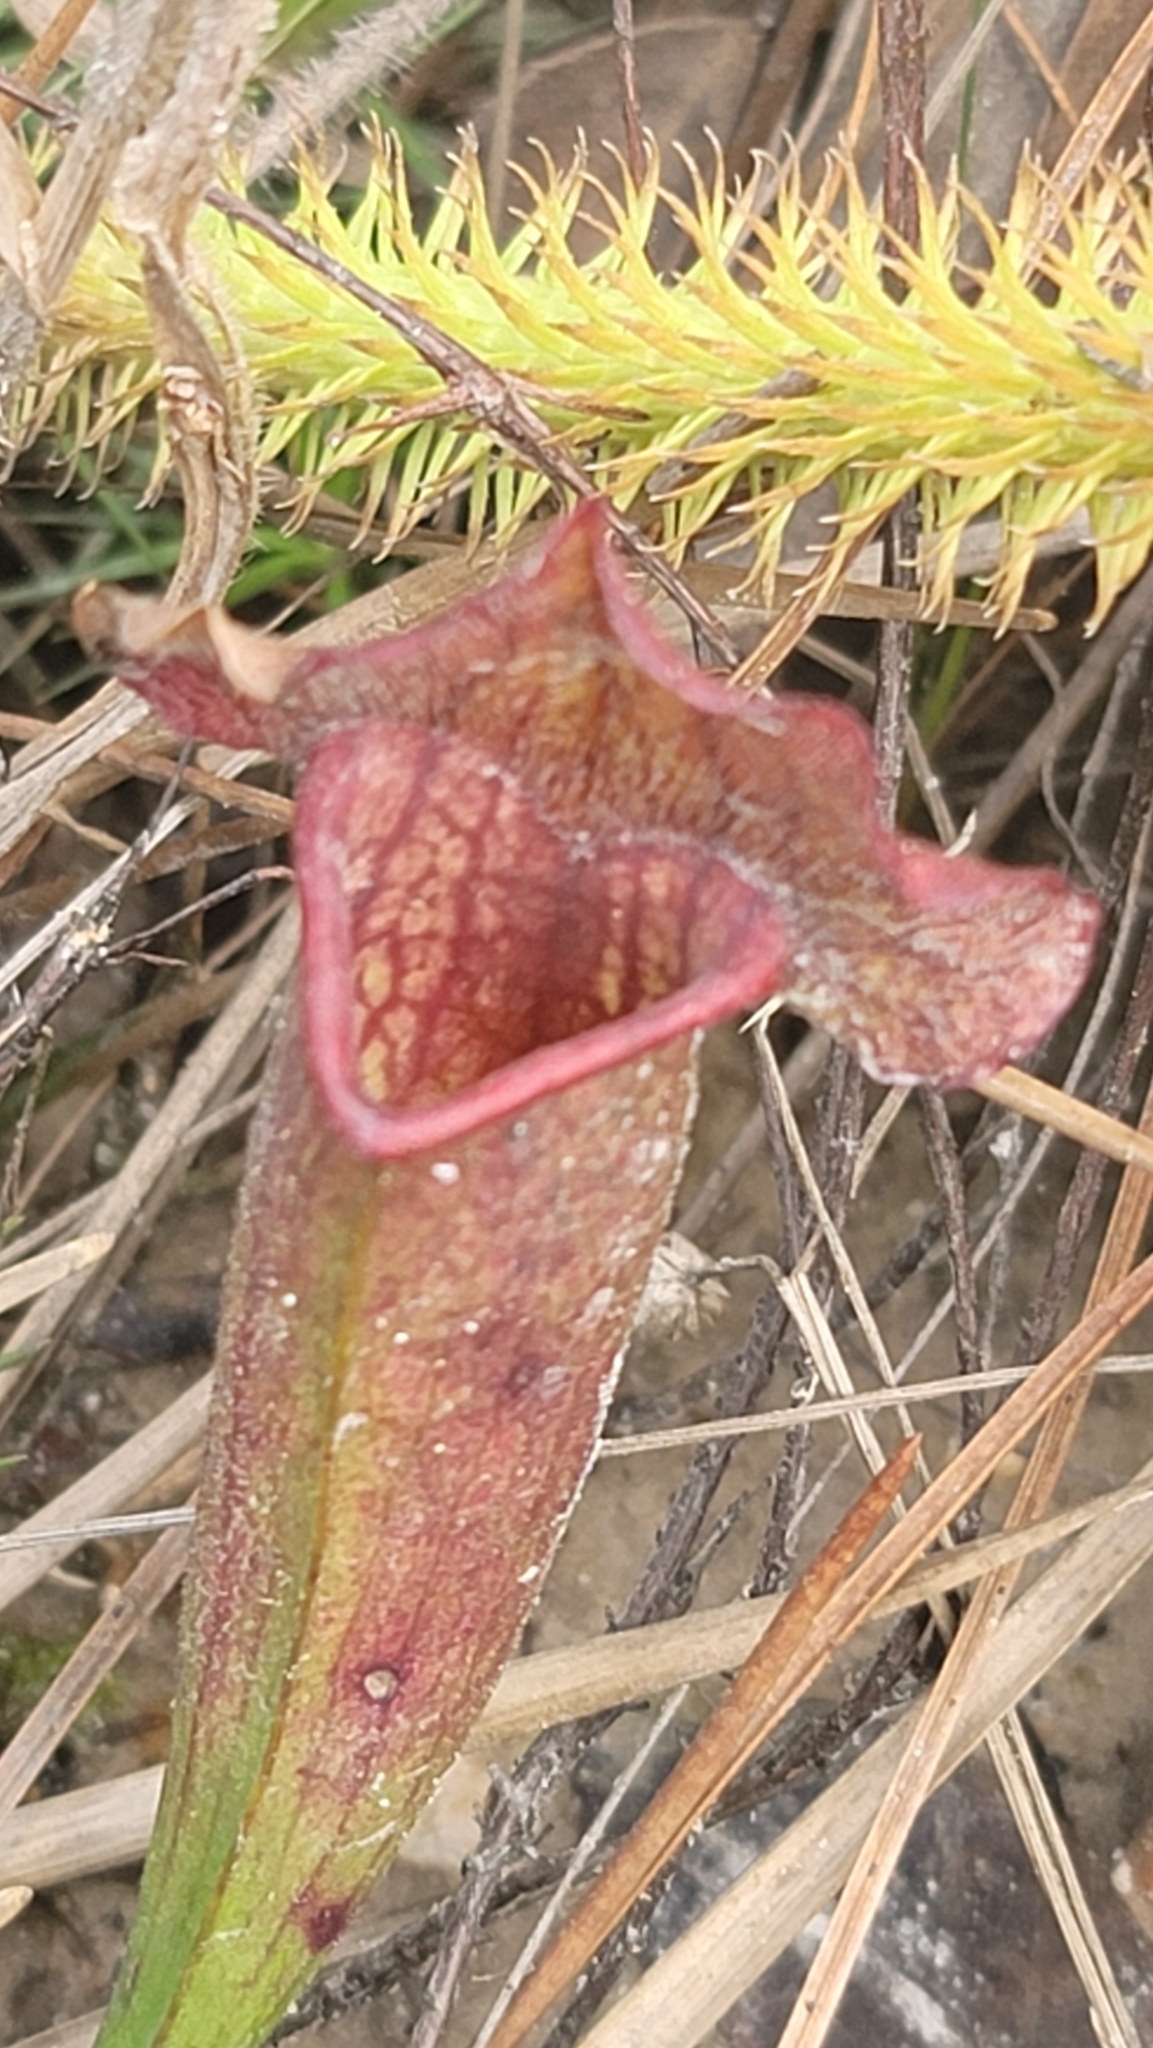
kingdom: Plantae
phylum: Tracheophyta
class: Magnoliopsida
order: Ericales
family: Sarraceniaceae
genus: Sarracenia
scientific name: Sarracenia mitchelliana
